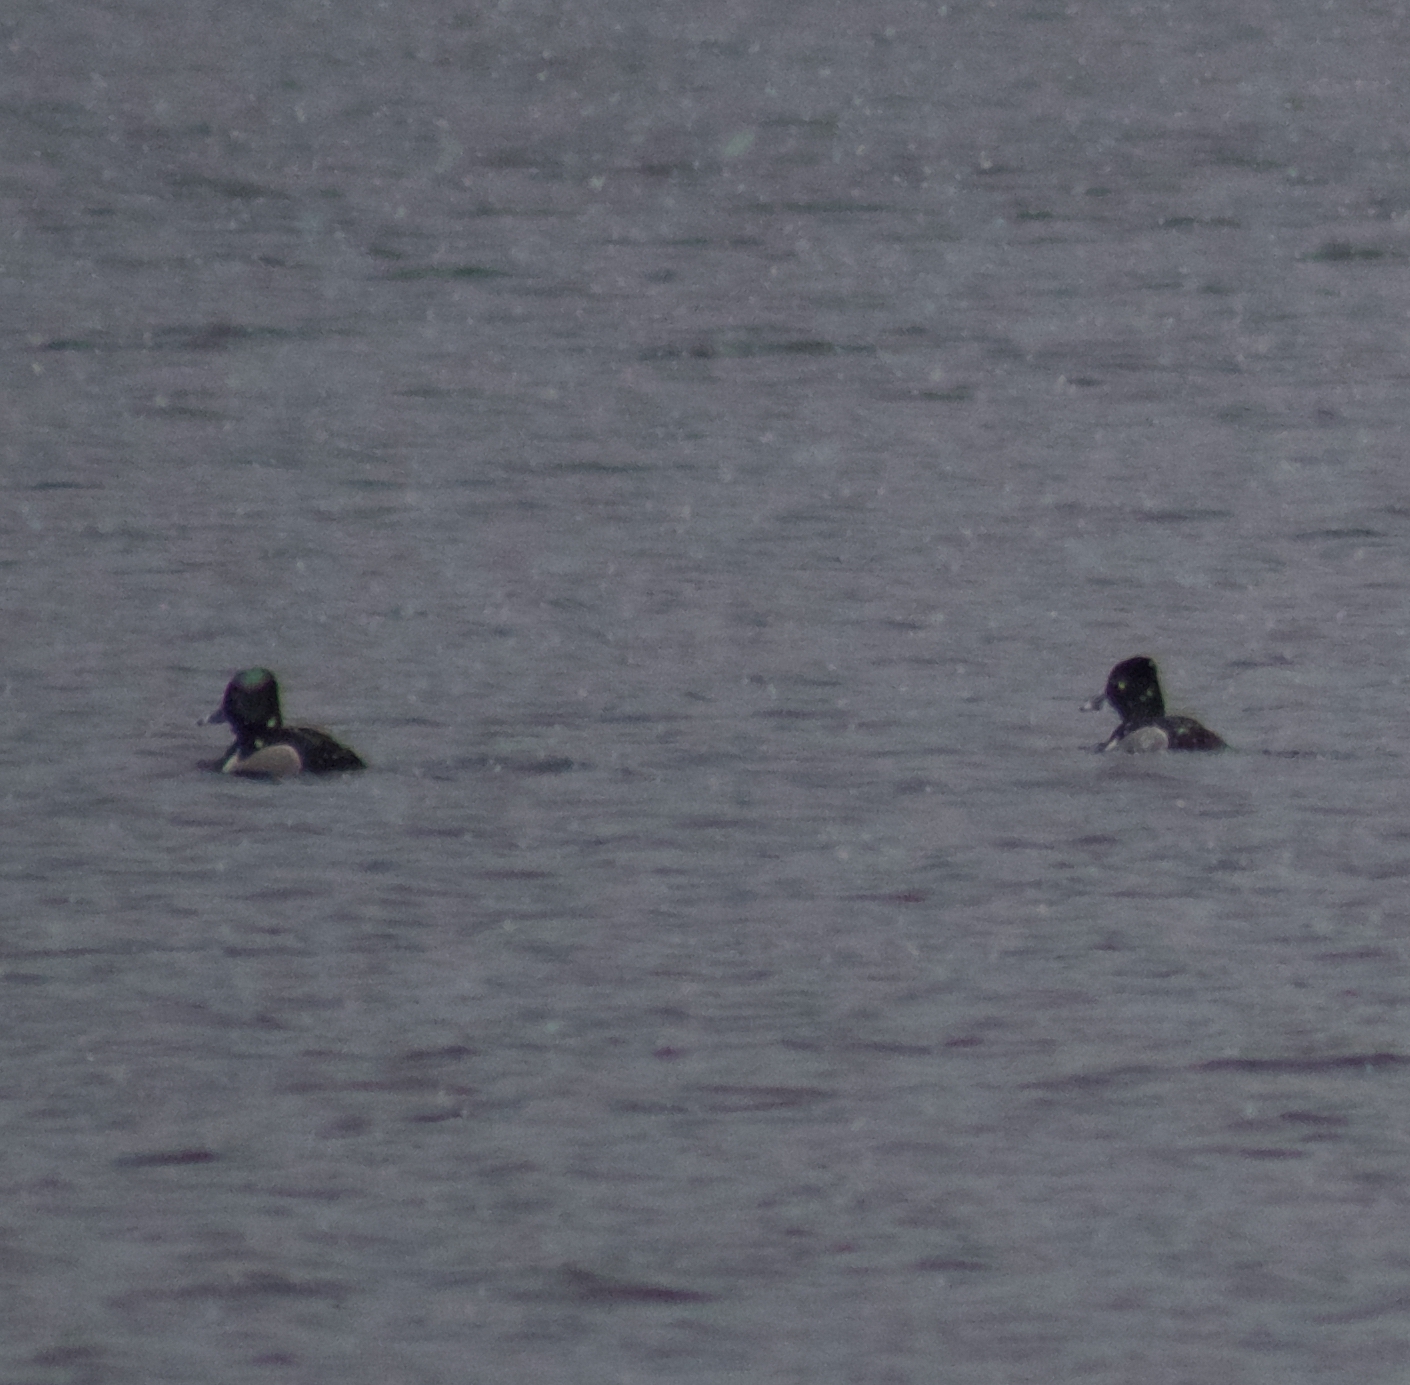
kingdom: Animalia
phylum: Chordata
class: Aves
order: Anseriformes
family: Anatidae
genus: Aythya
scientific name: Aythya collaris
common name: Ring-necked duck
